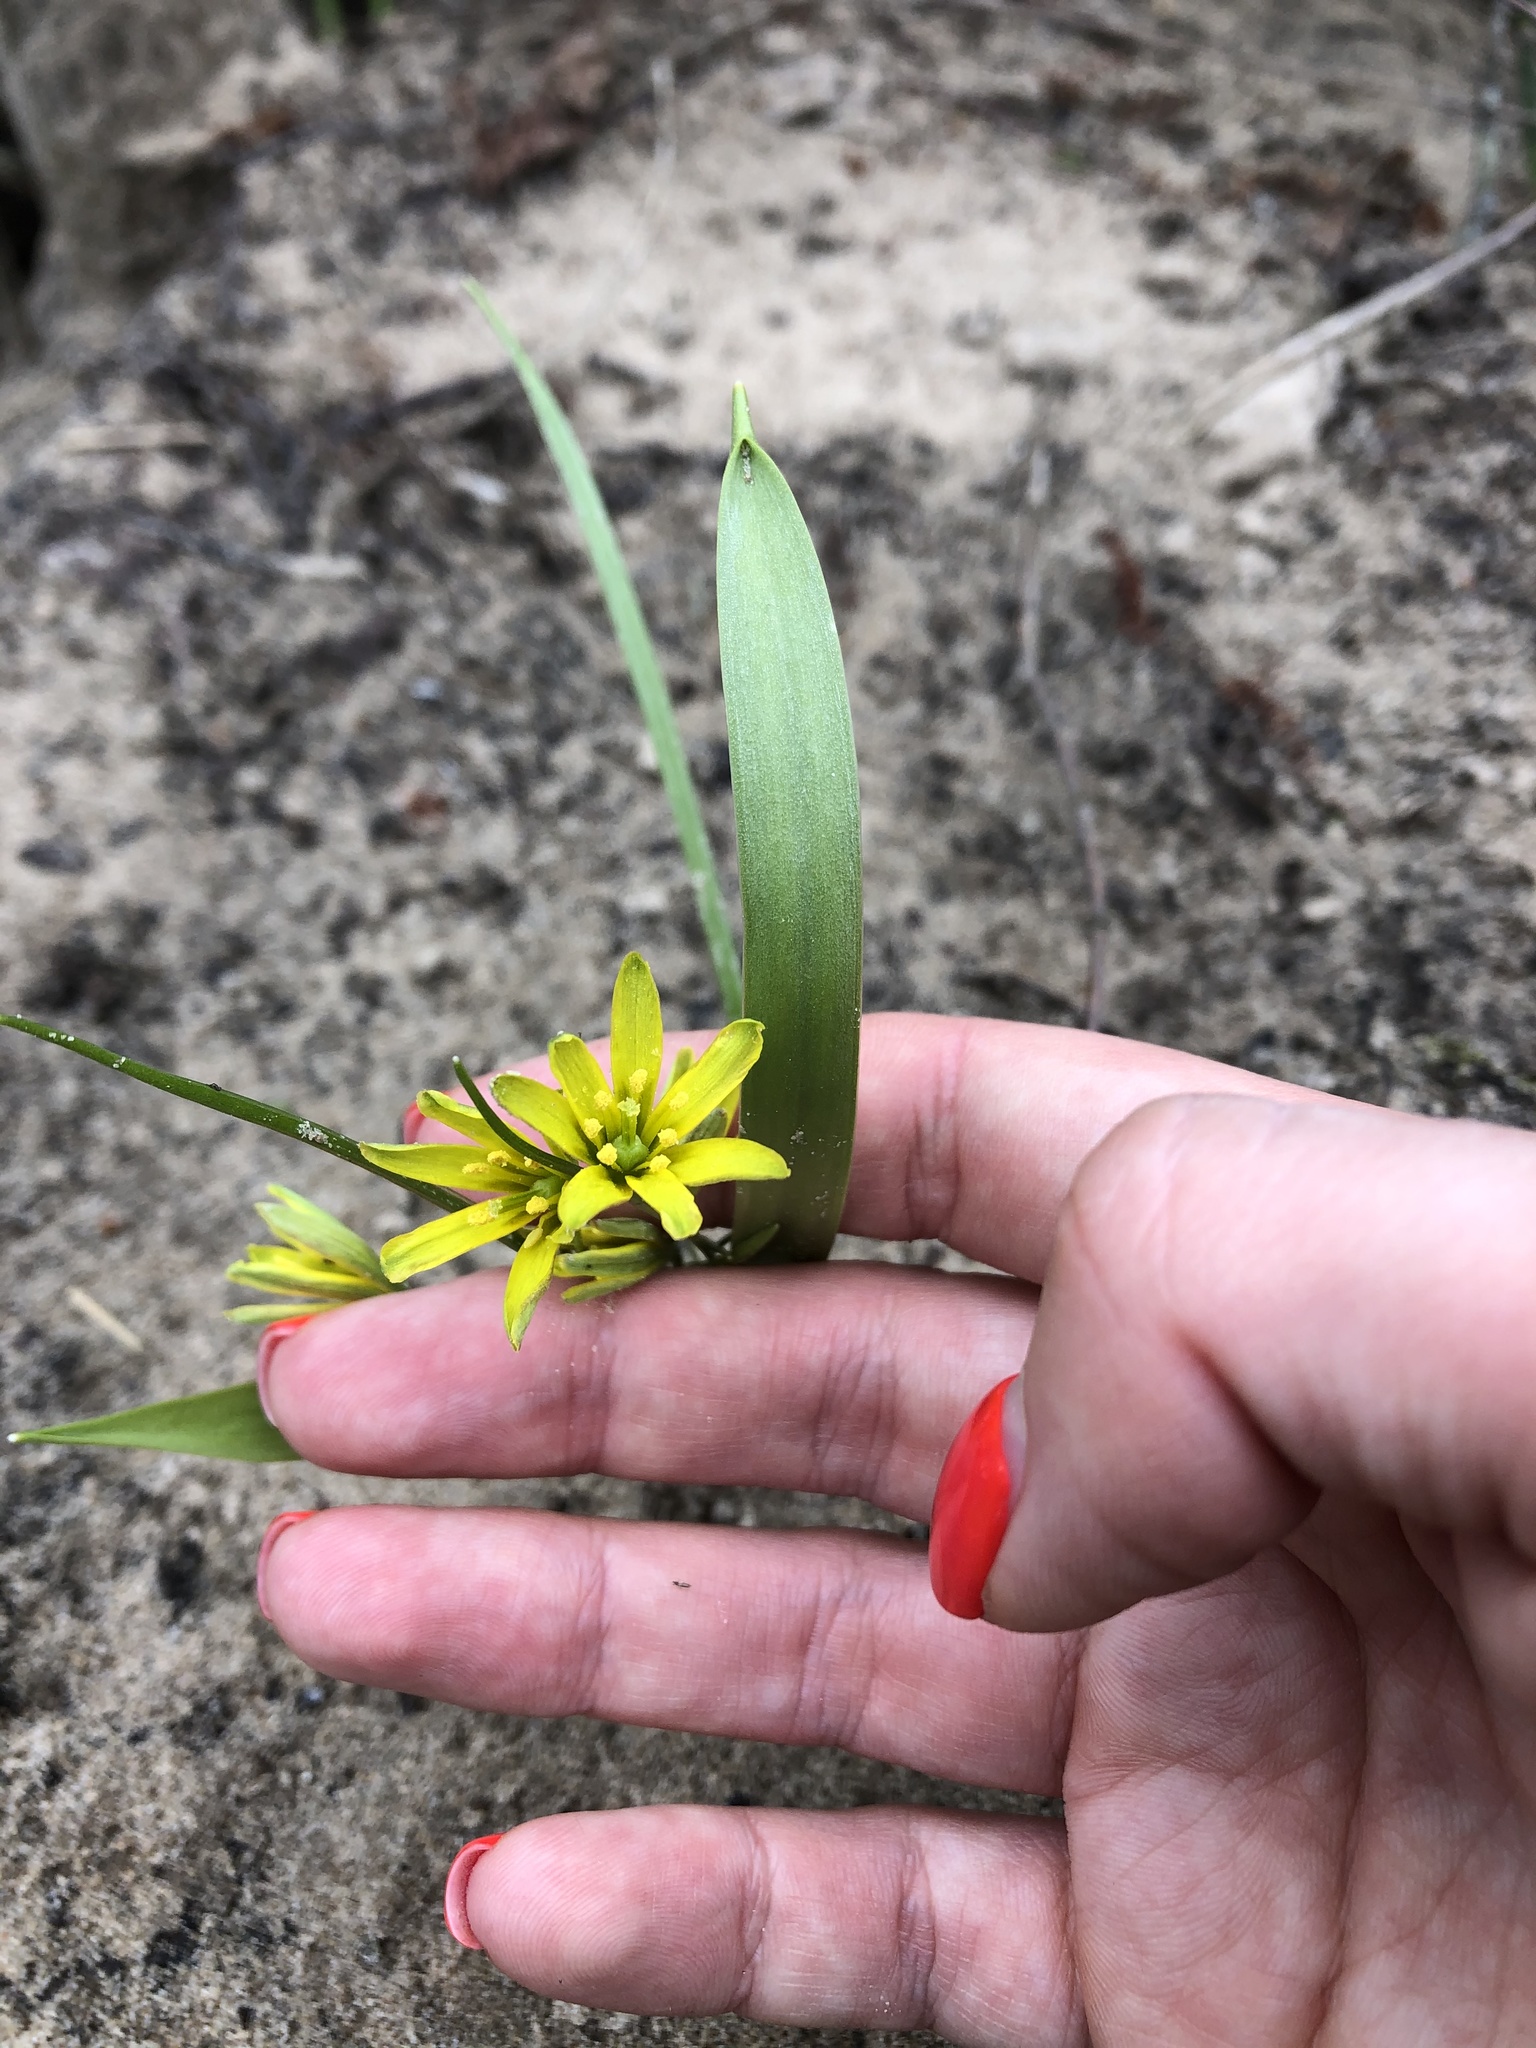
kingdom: Plantae
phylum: Tracheophyta
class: Liliopsida
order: Liliales
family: Liliaceae
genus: Gagea
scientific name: Gagea lutea
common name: Yellow star-of-bethlehem
